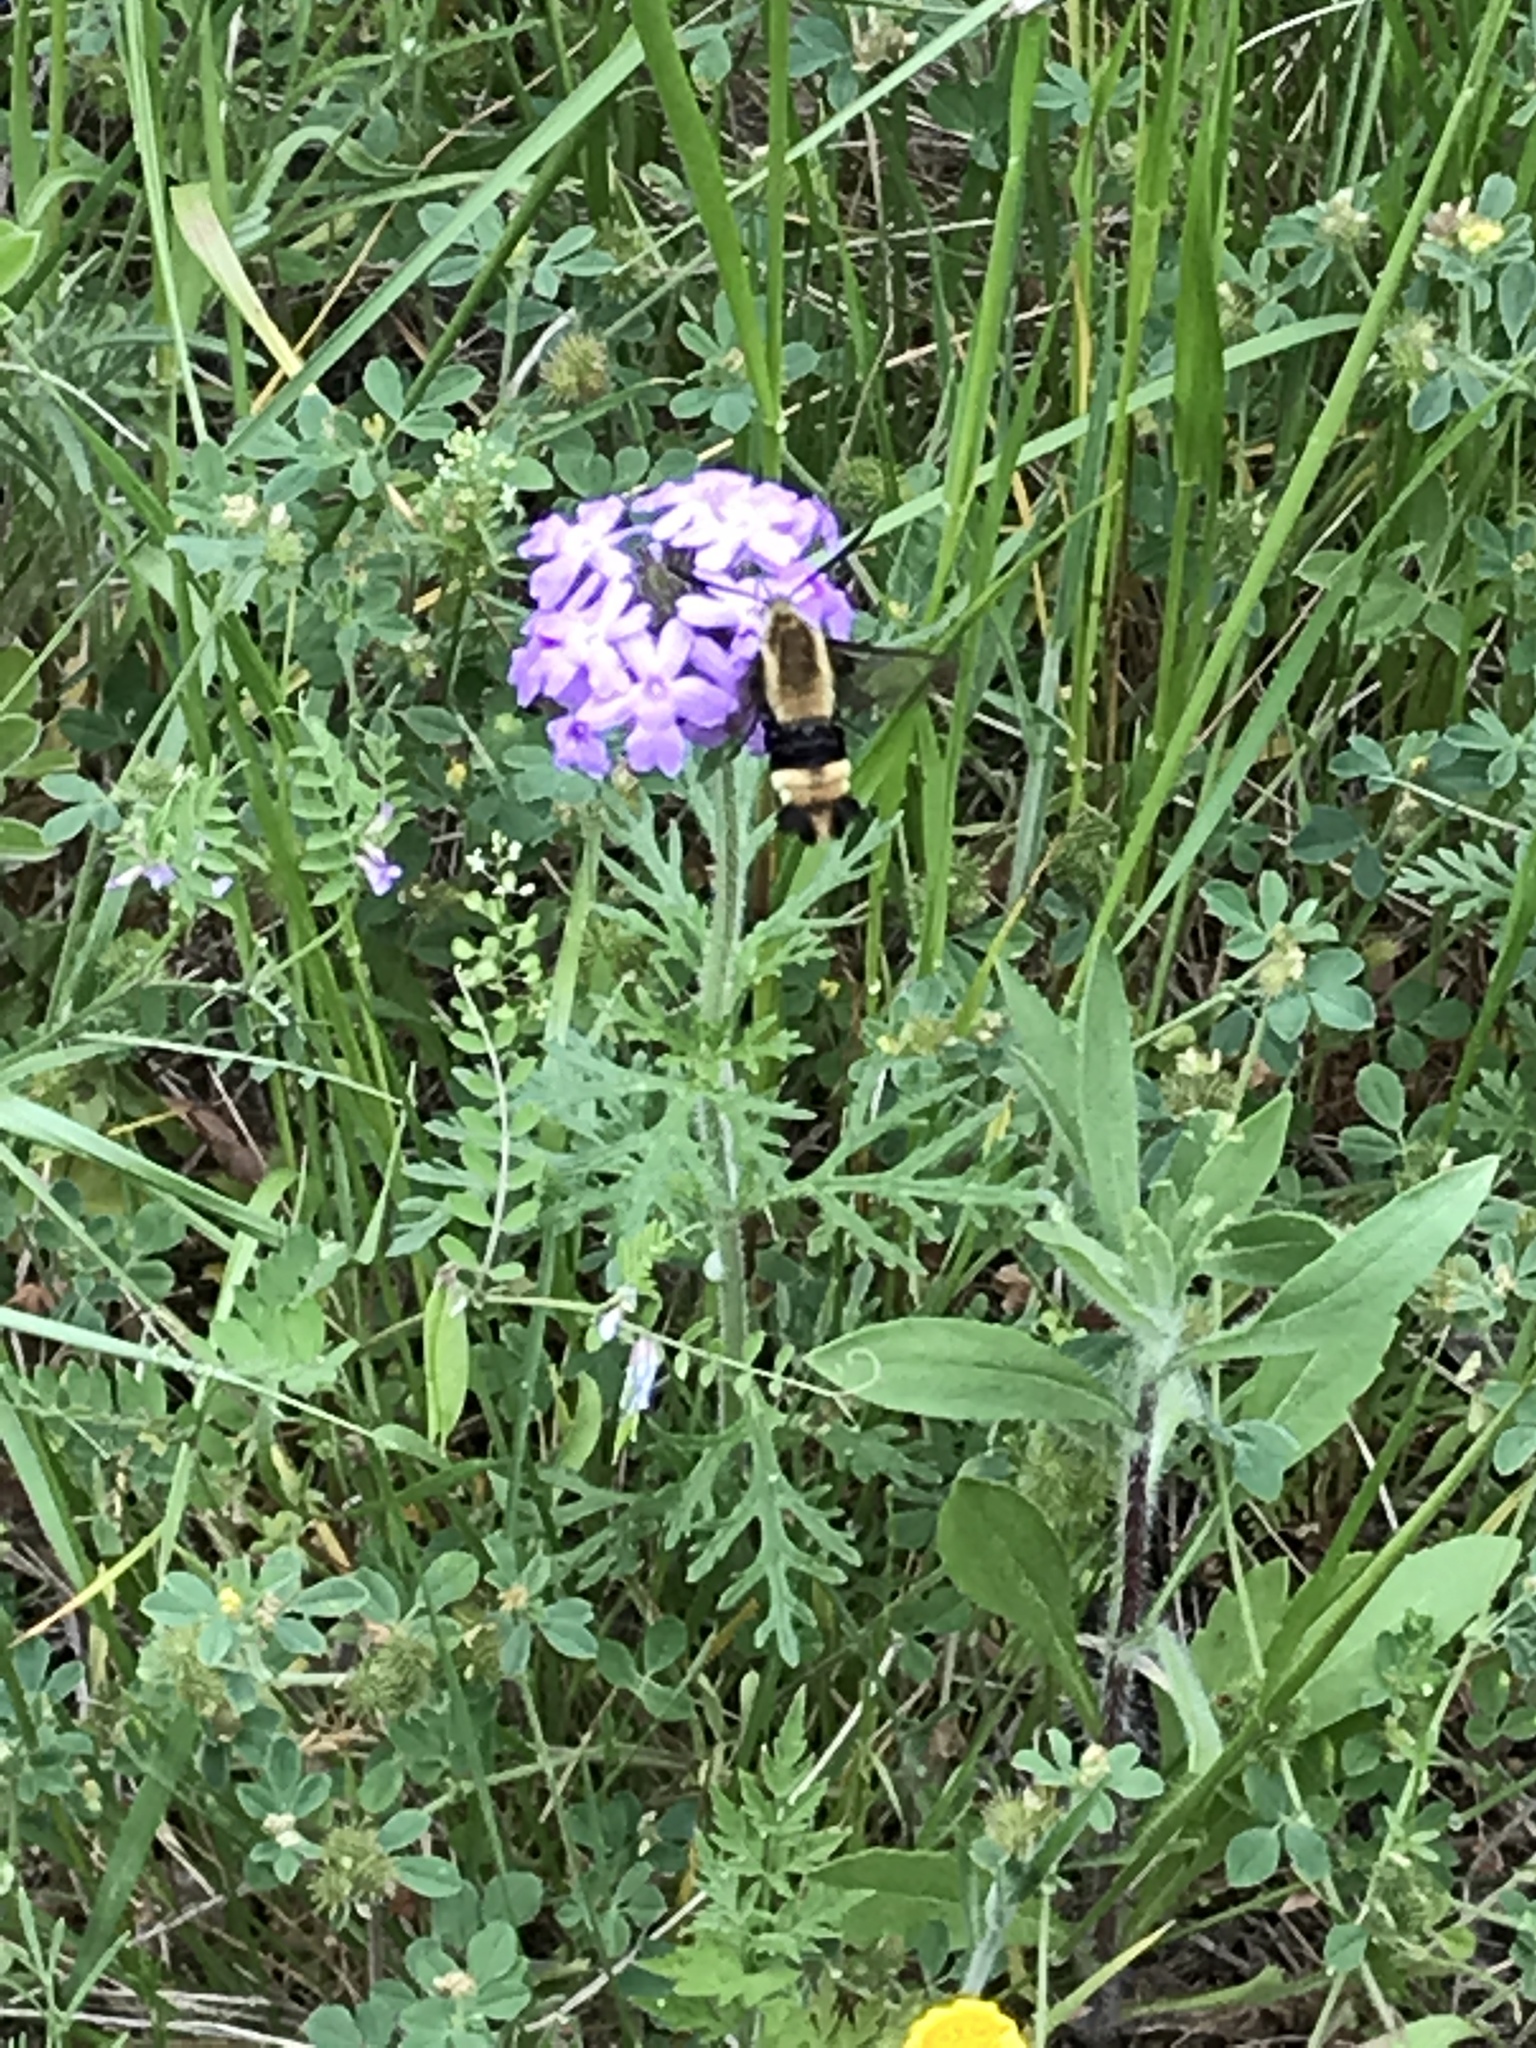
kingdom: Animalia
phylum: Arthropoda
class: Insecta
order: Lepidoptera
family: Sphingidae
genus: Hemaris
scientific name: Hemaris diffinis
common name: Bumblebee moth
